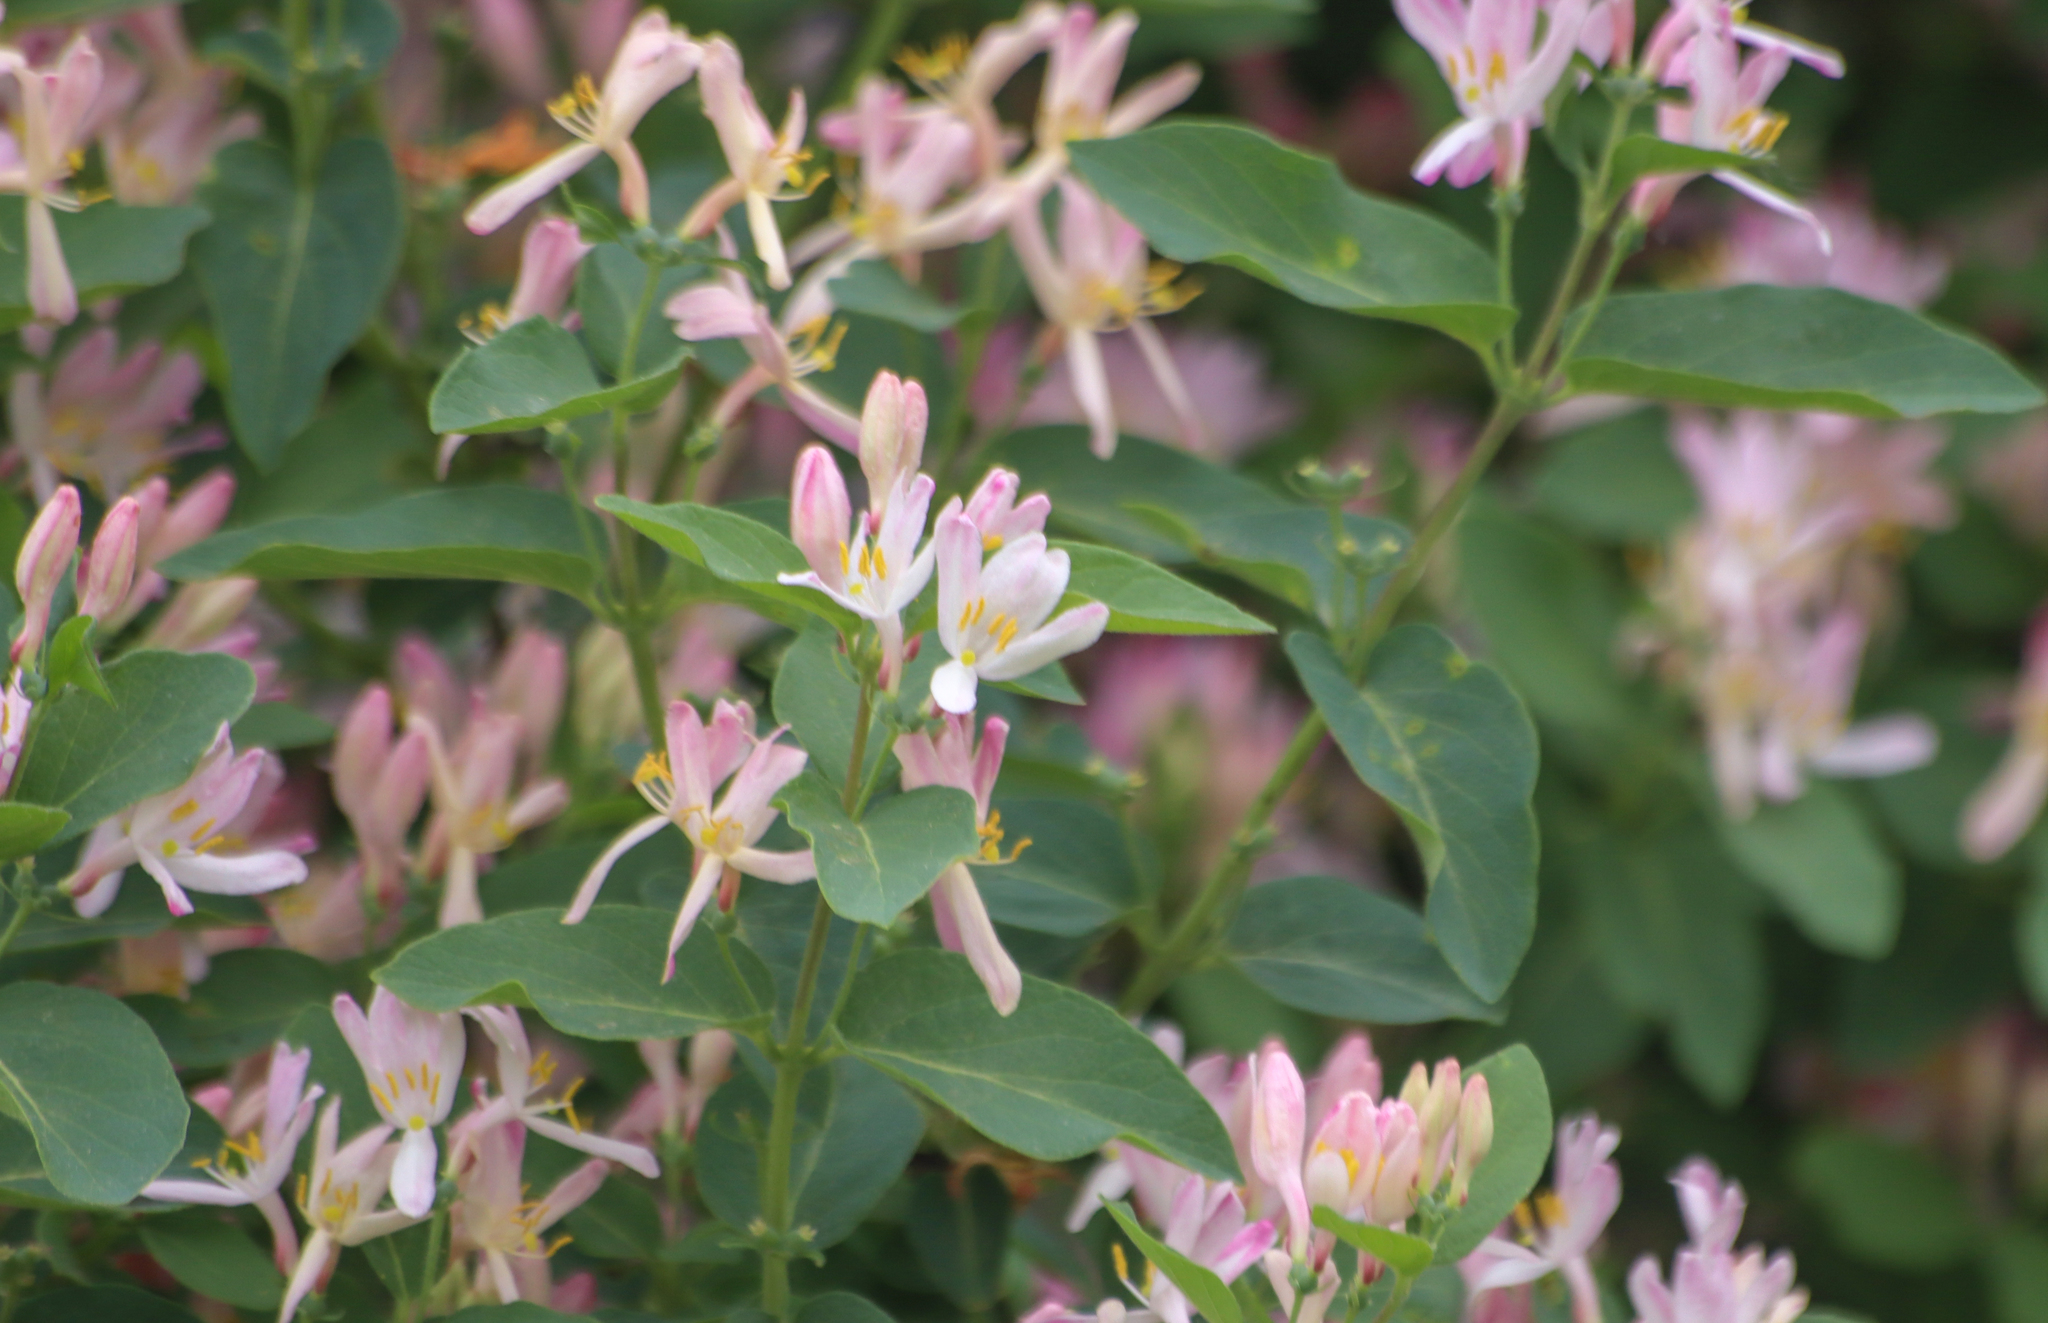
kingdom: Plantae
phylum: Tracheophyta
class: Magnoliopsida
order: Dipsacales
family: Caprifoliaceae
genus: Lonicera
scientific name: Lonicera tatarica
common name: Tatarian honeysuckle
